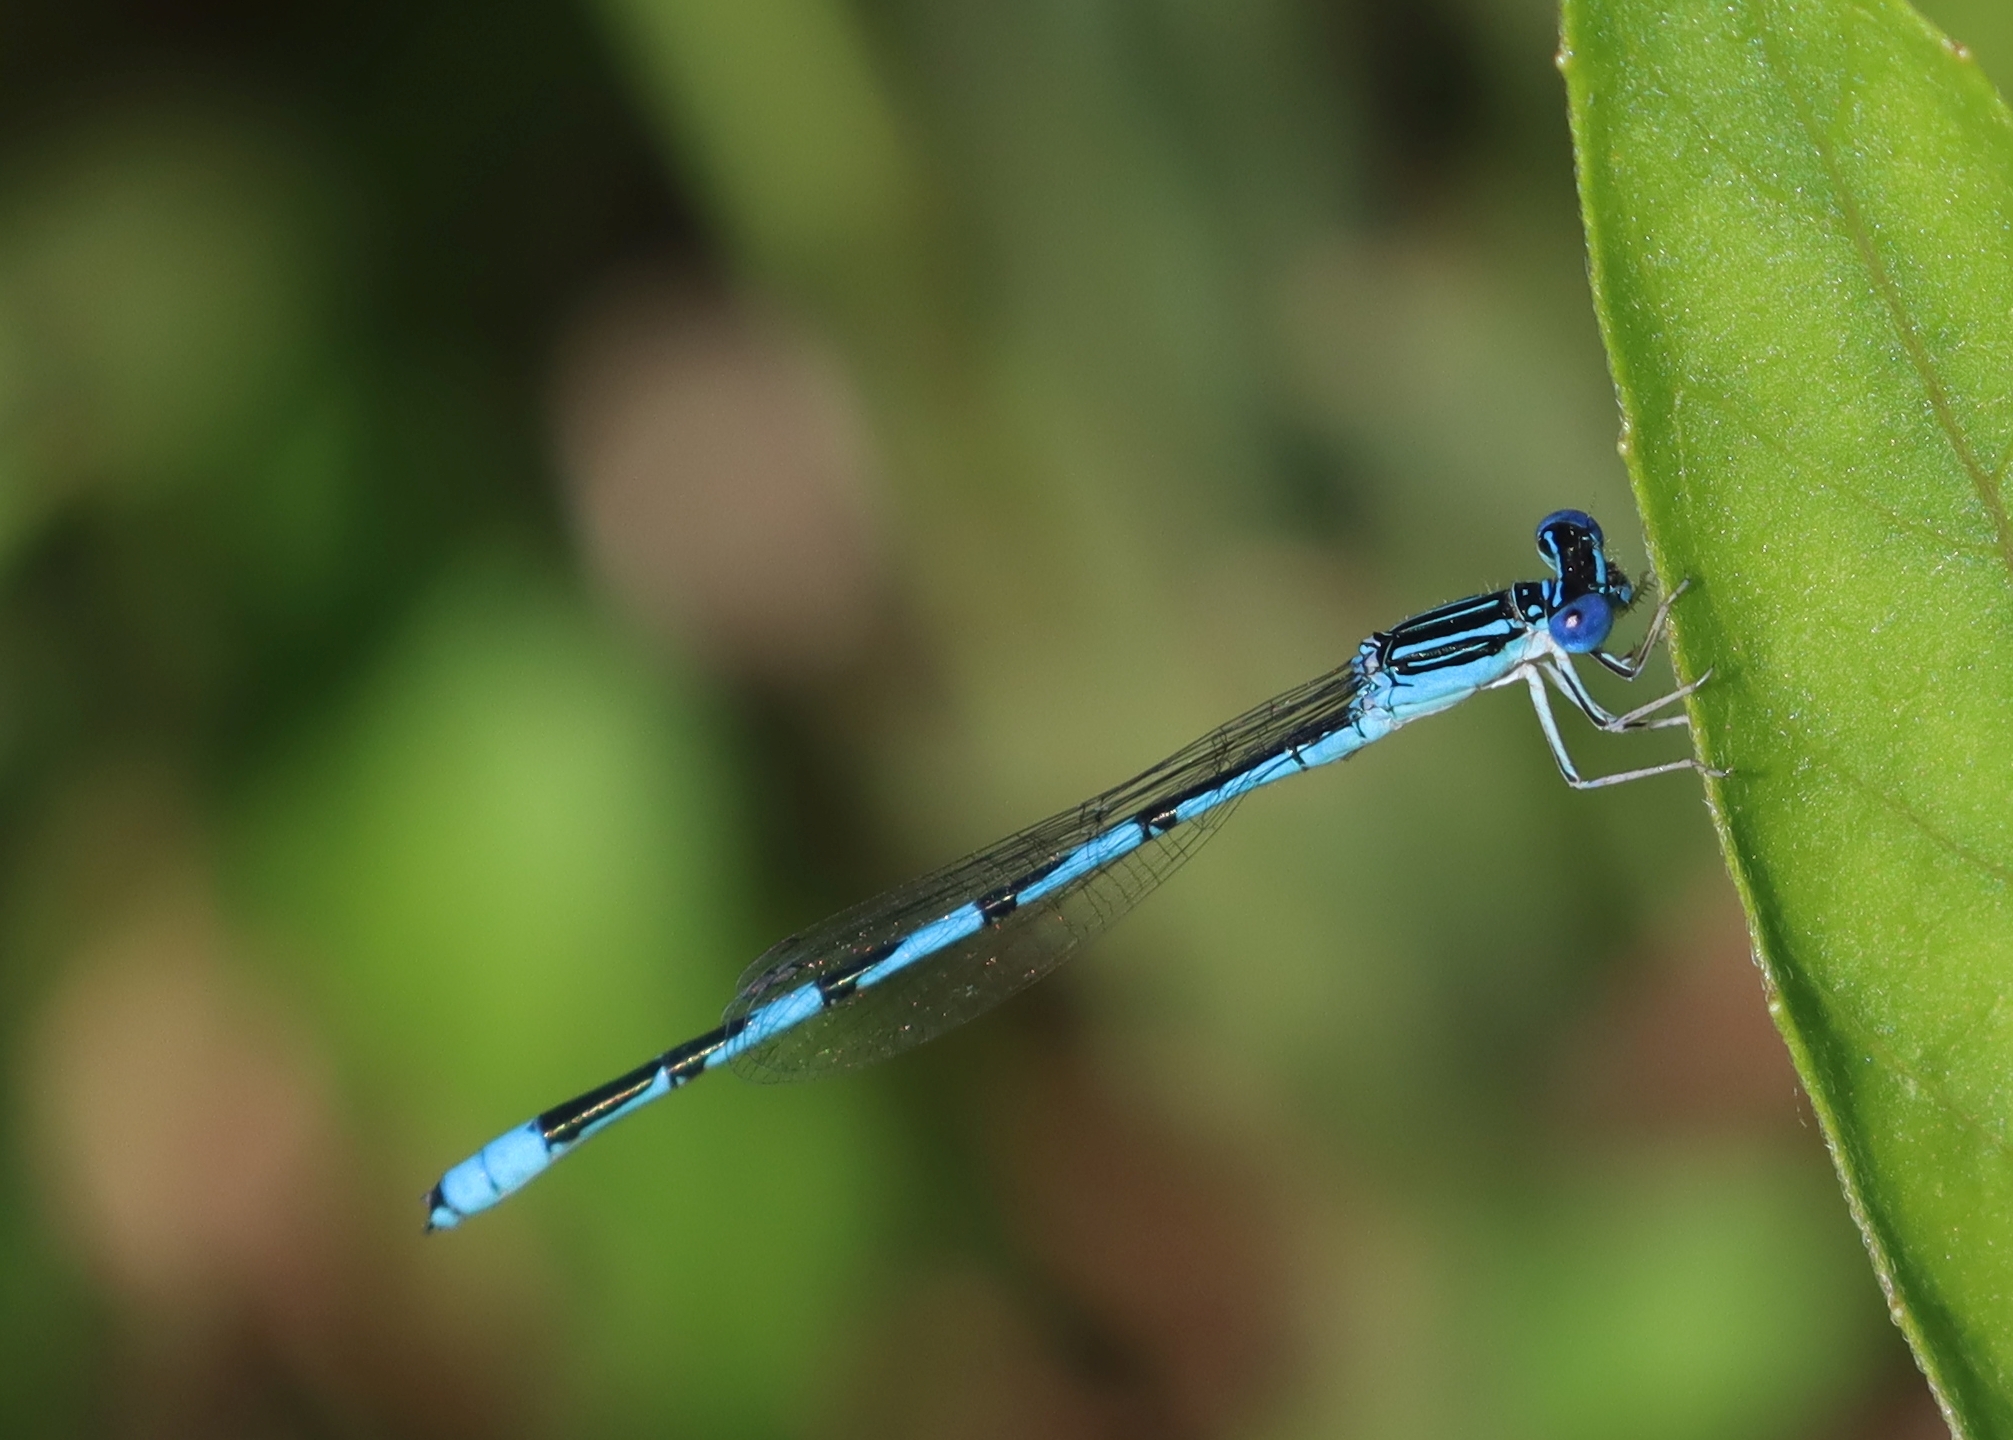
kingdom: Animalia
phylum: Arthropoda
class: Insecta
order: Odonata
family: Coenagrionidae
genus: Enallagma
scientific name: Enallagma basidens
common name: Double-striped bluet
